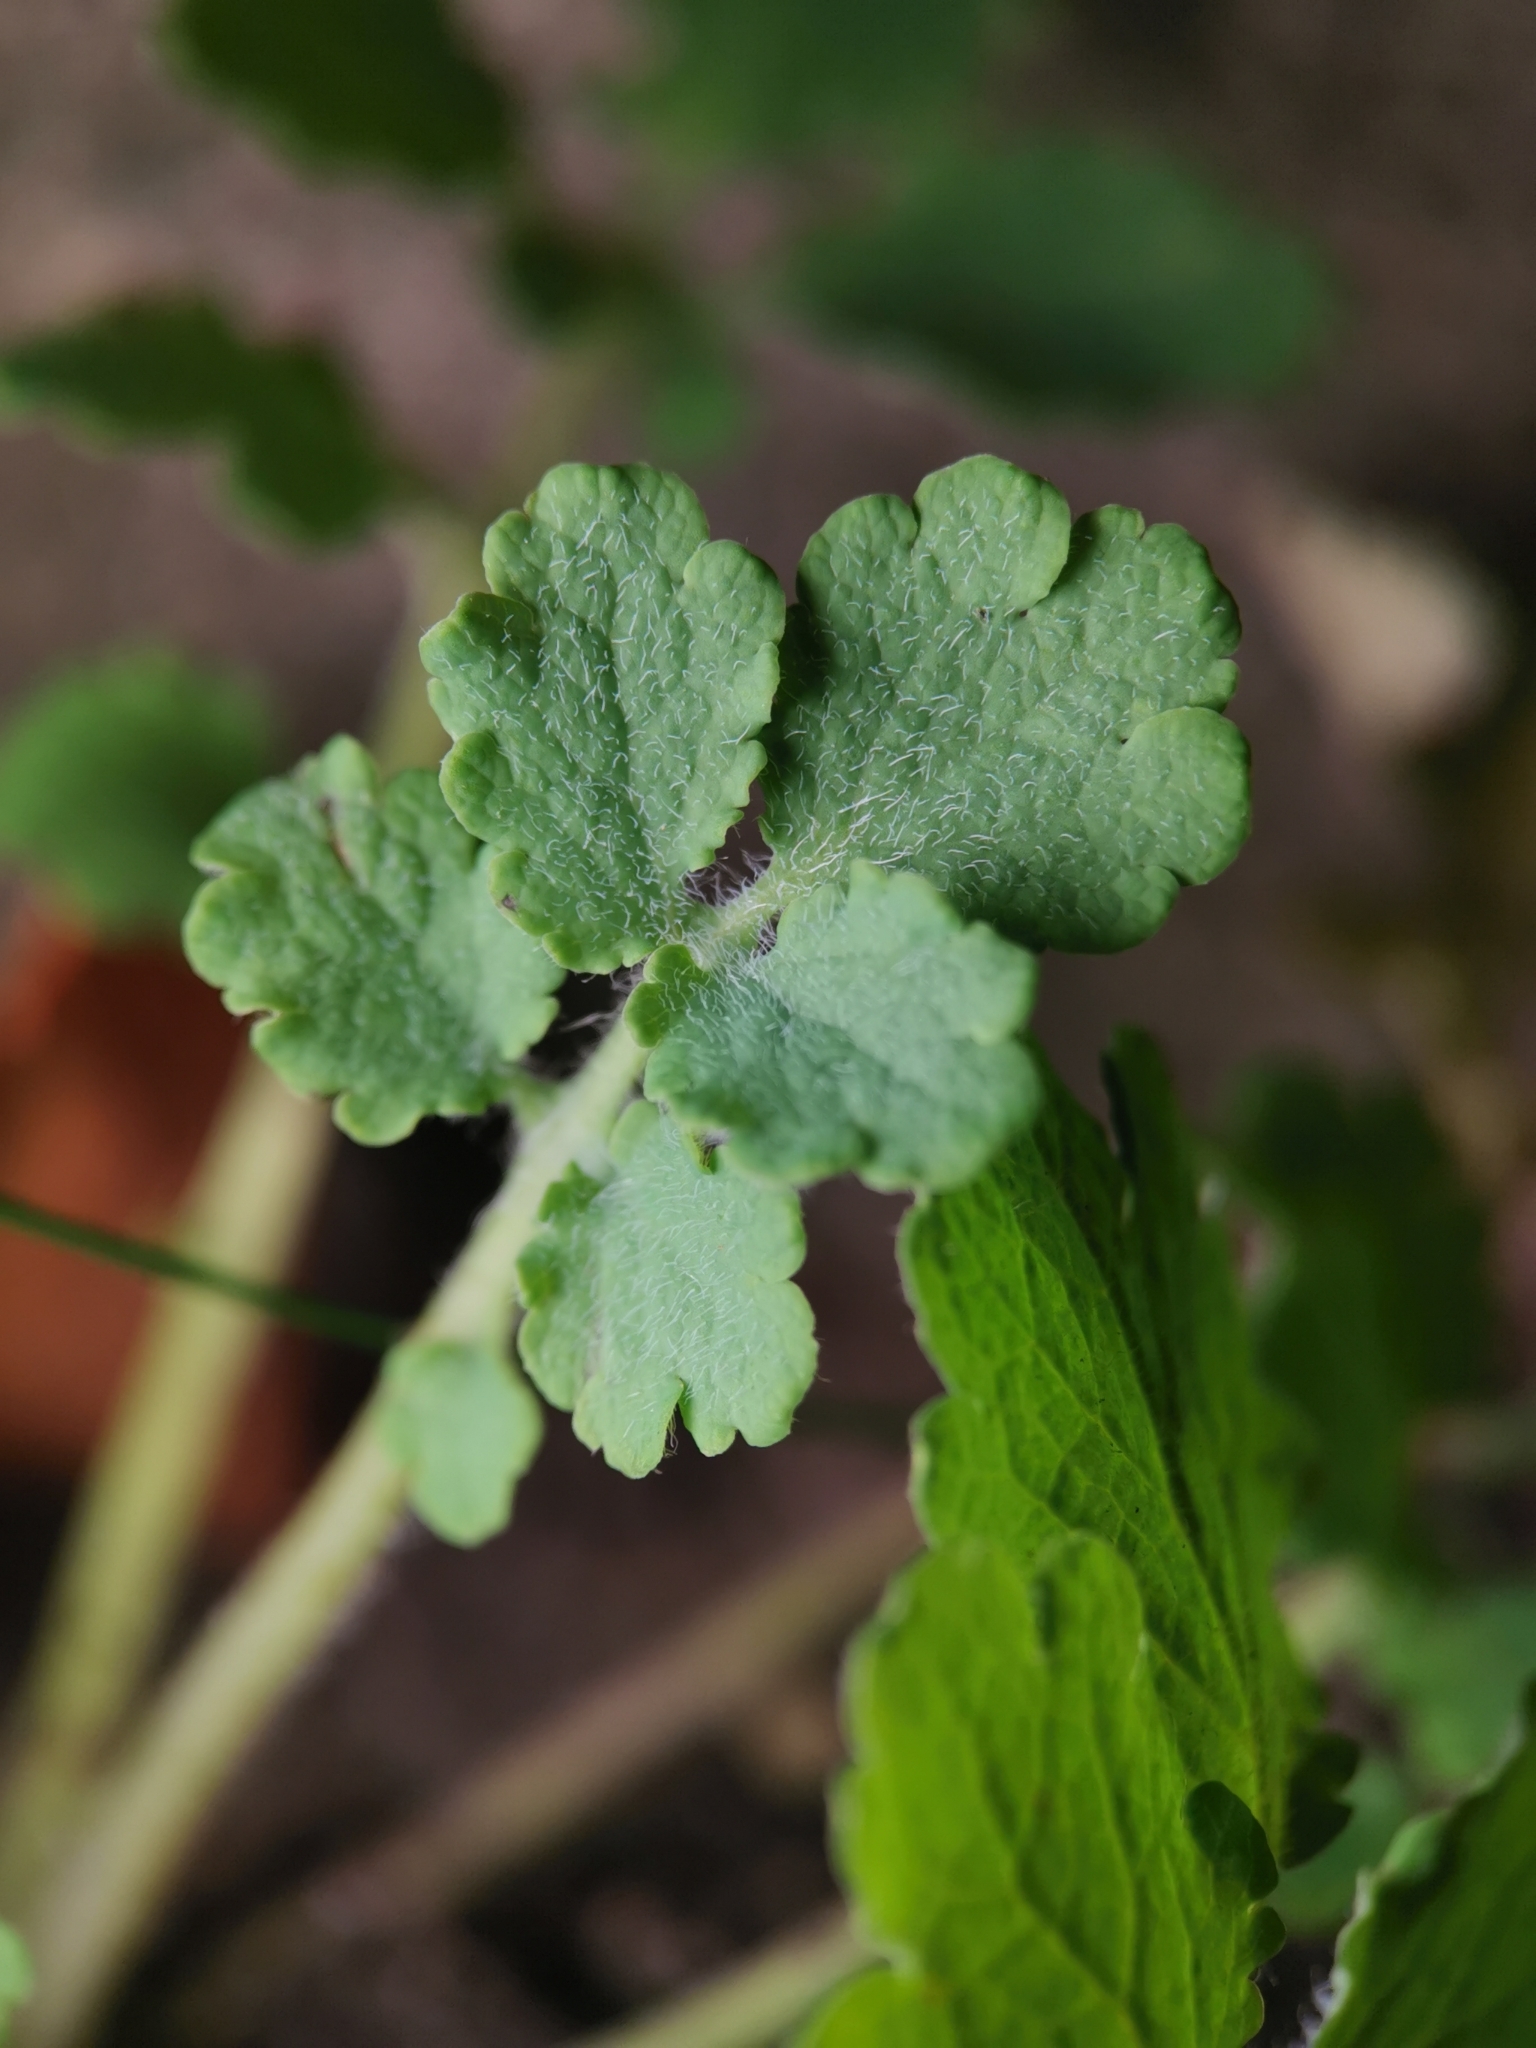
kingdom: Plantae
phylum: Tracheophyta
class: Magnoliopsida
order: Ranunculales
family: Papaveraceae
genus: Chelidonium
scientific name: Chelidonium majus
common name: Greater celandine
